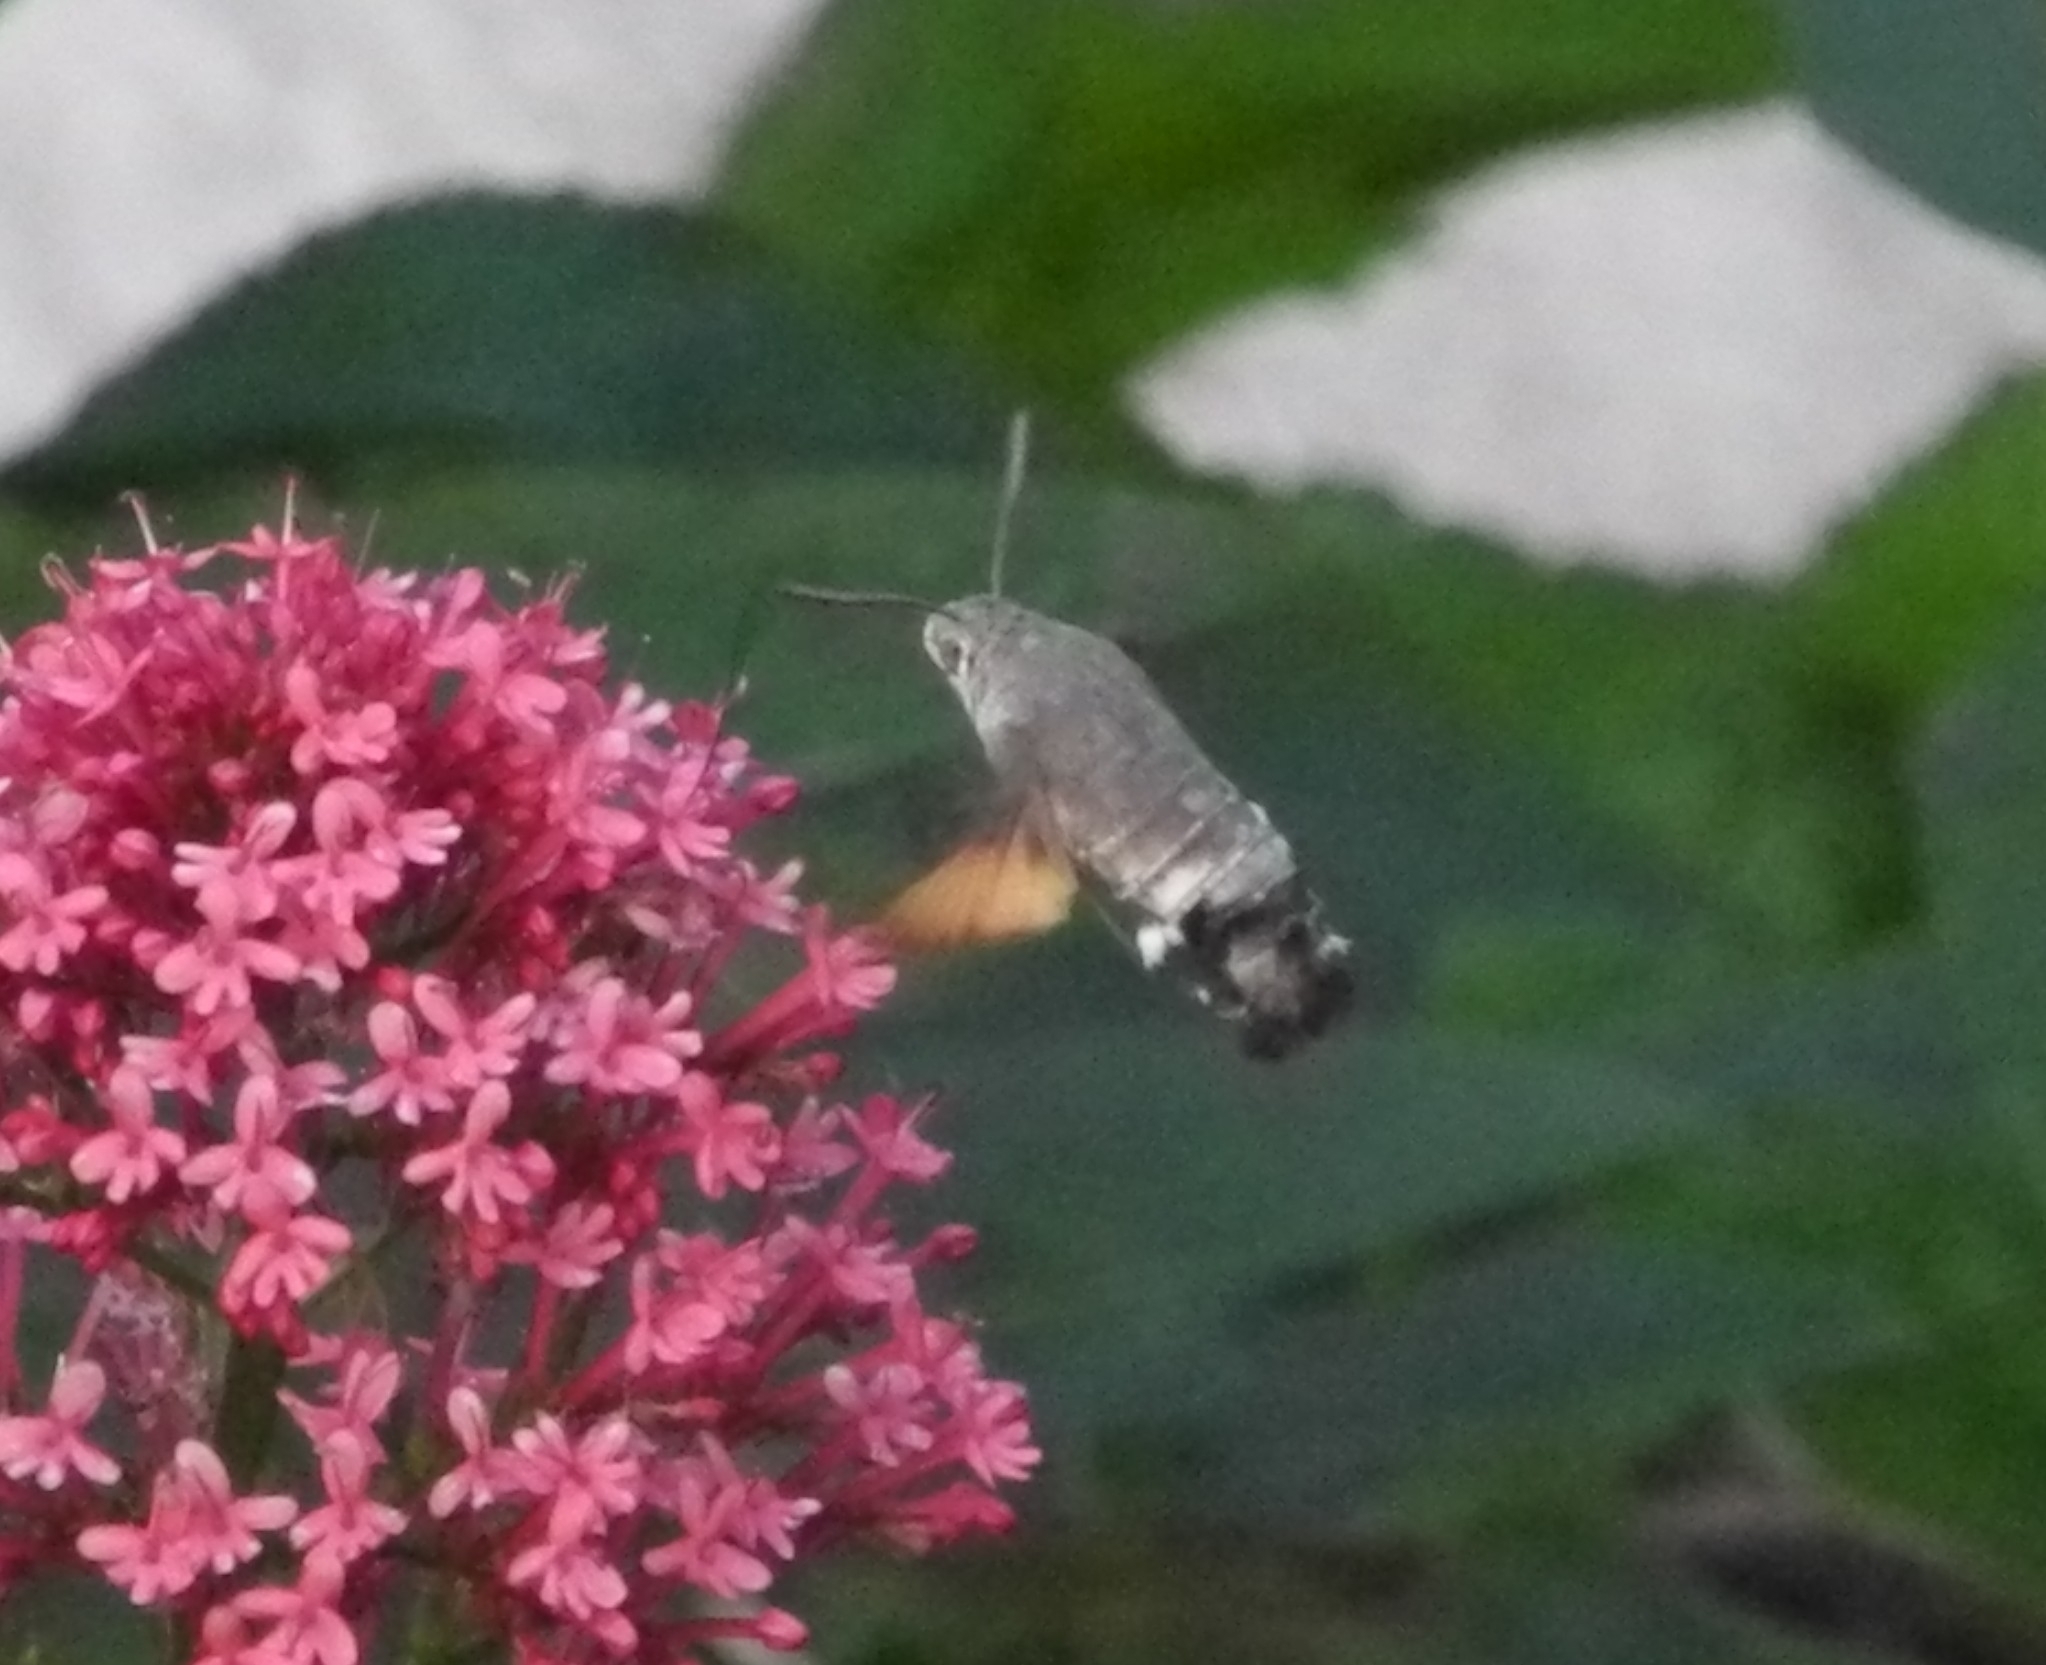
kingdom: Animalia
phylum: Arthropoda
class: Insecta
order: Lepidoptera
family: Sphingidae
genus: Macroglossum
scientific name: Macroglossum stellatarum
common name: Humming-bird hawk-moth
